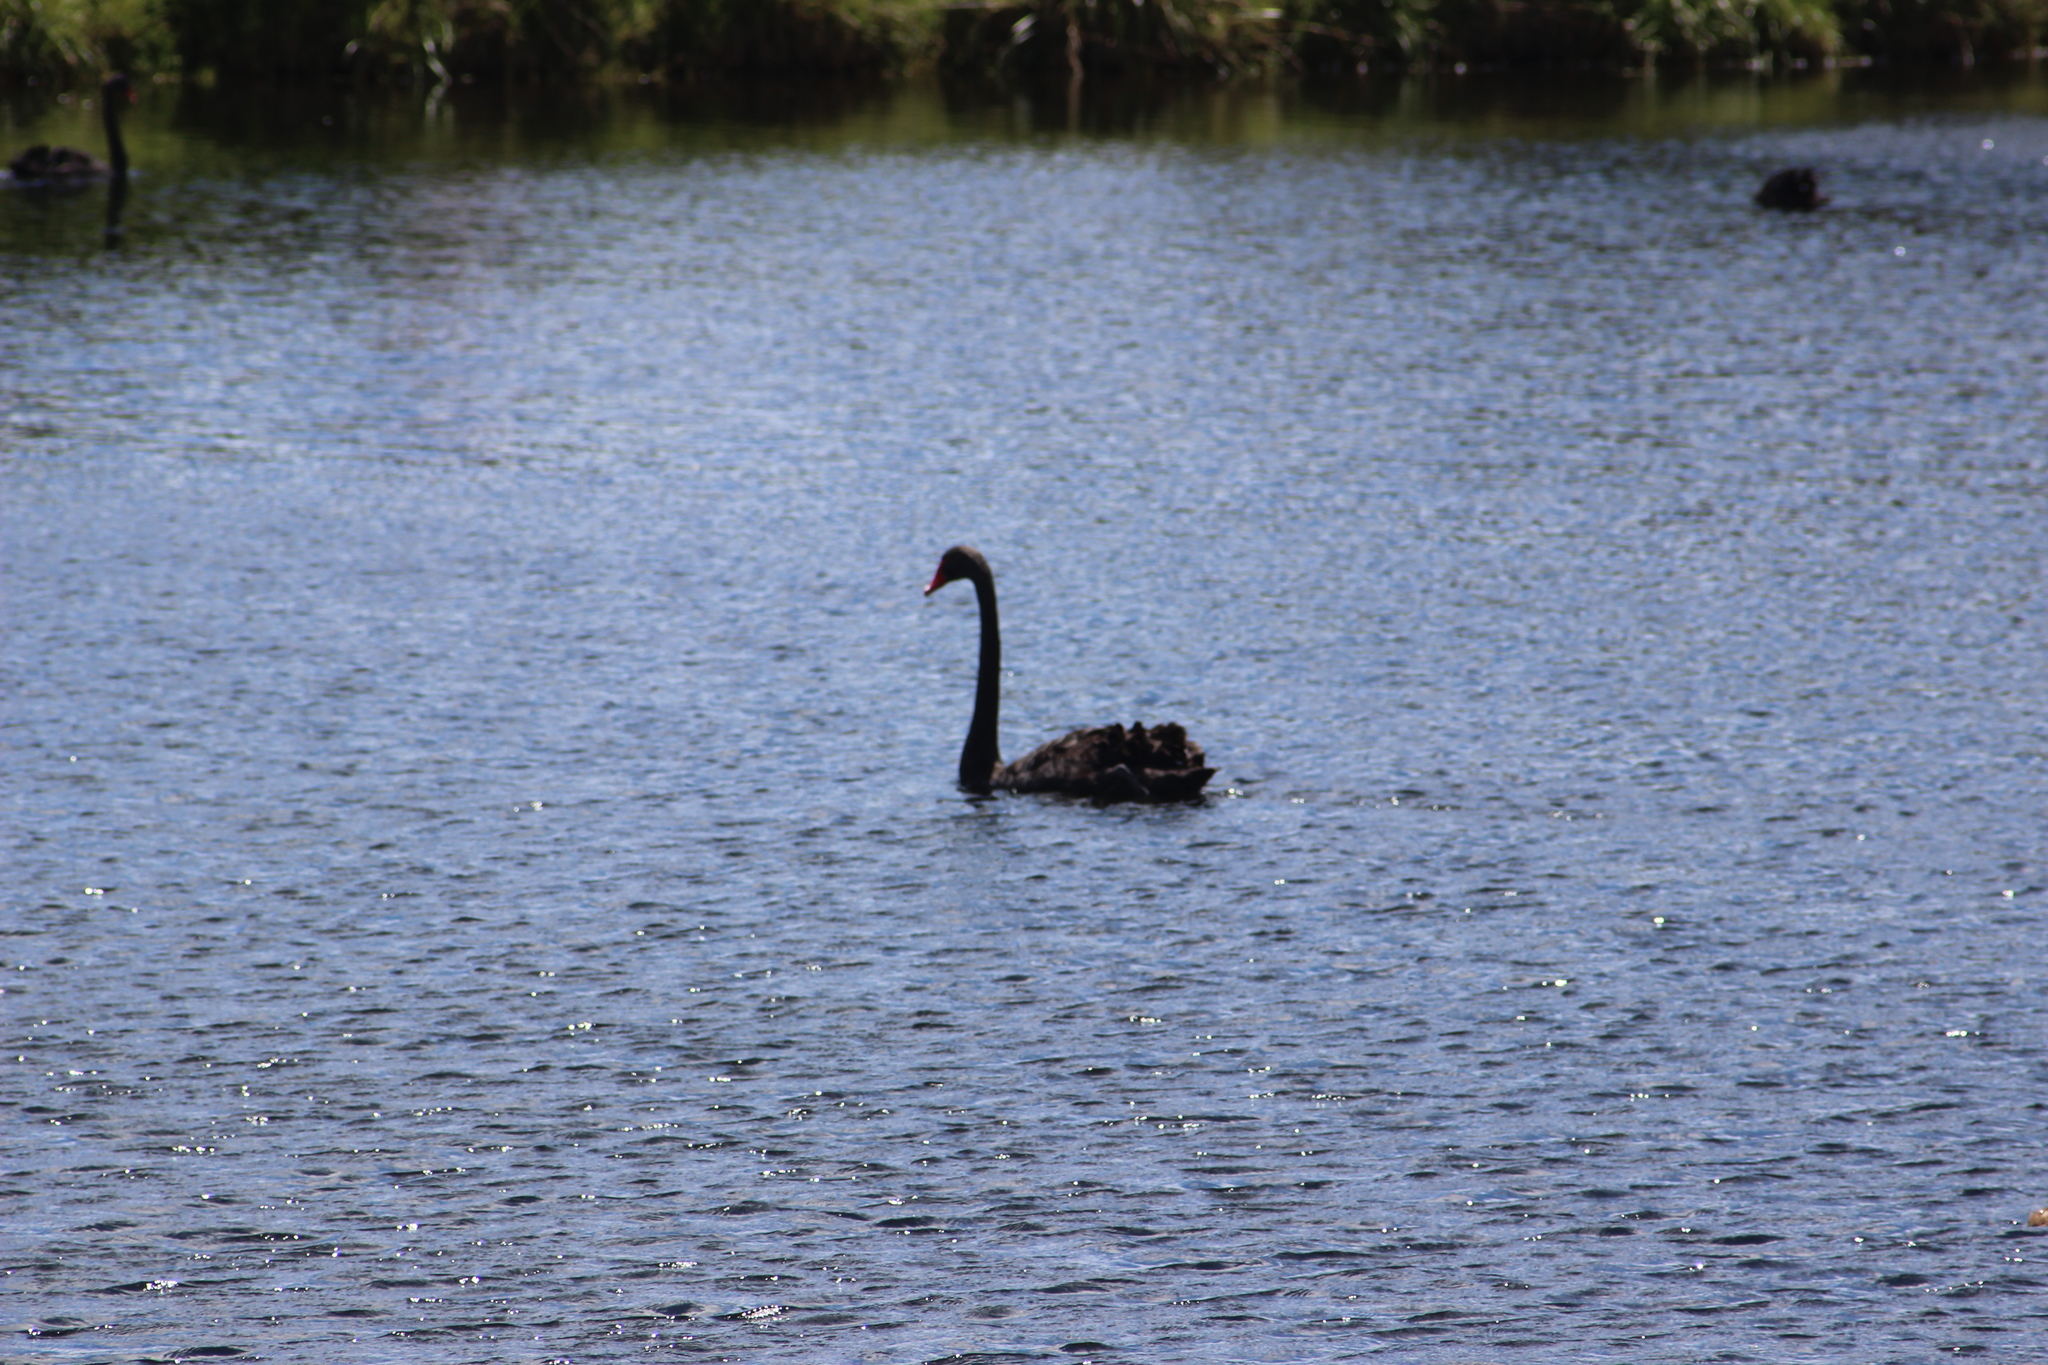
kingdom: Animalia
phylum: Chordata
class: Aves
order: Anseriformes
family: Anatidae
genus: Cygnus
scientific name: Cygnus atratus
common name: Black swan
